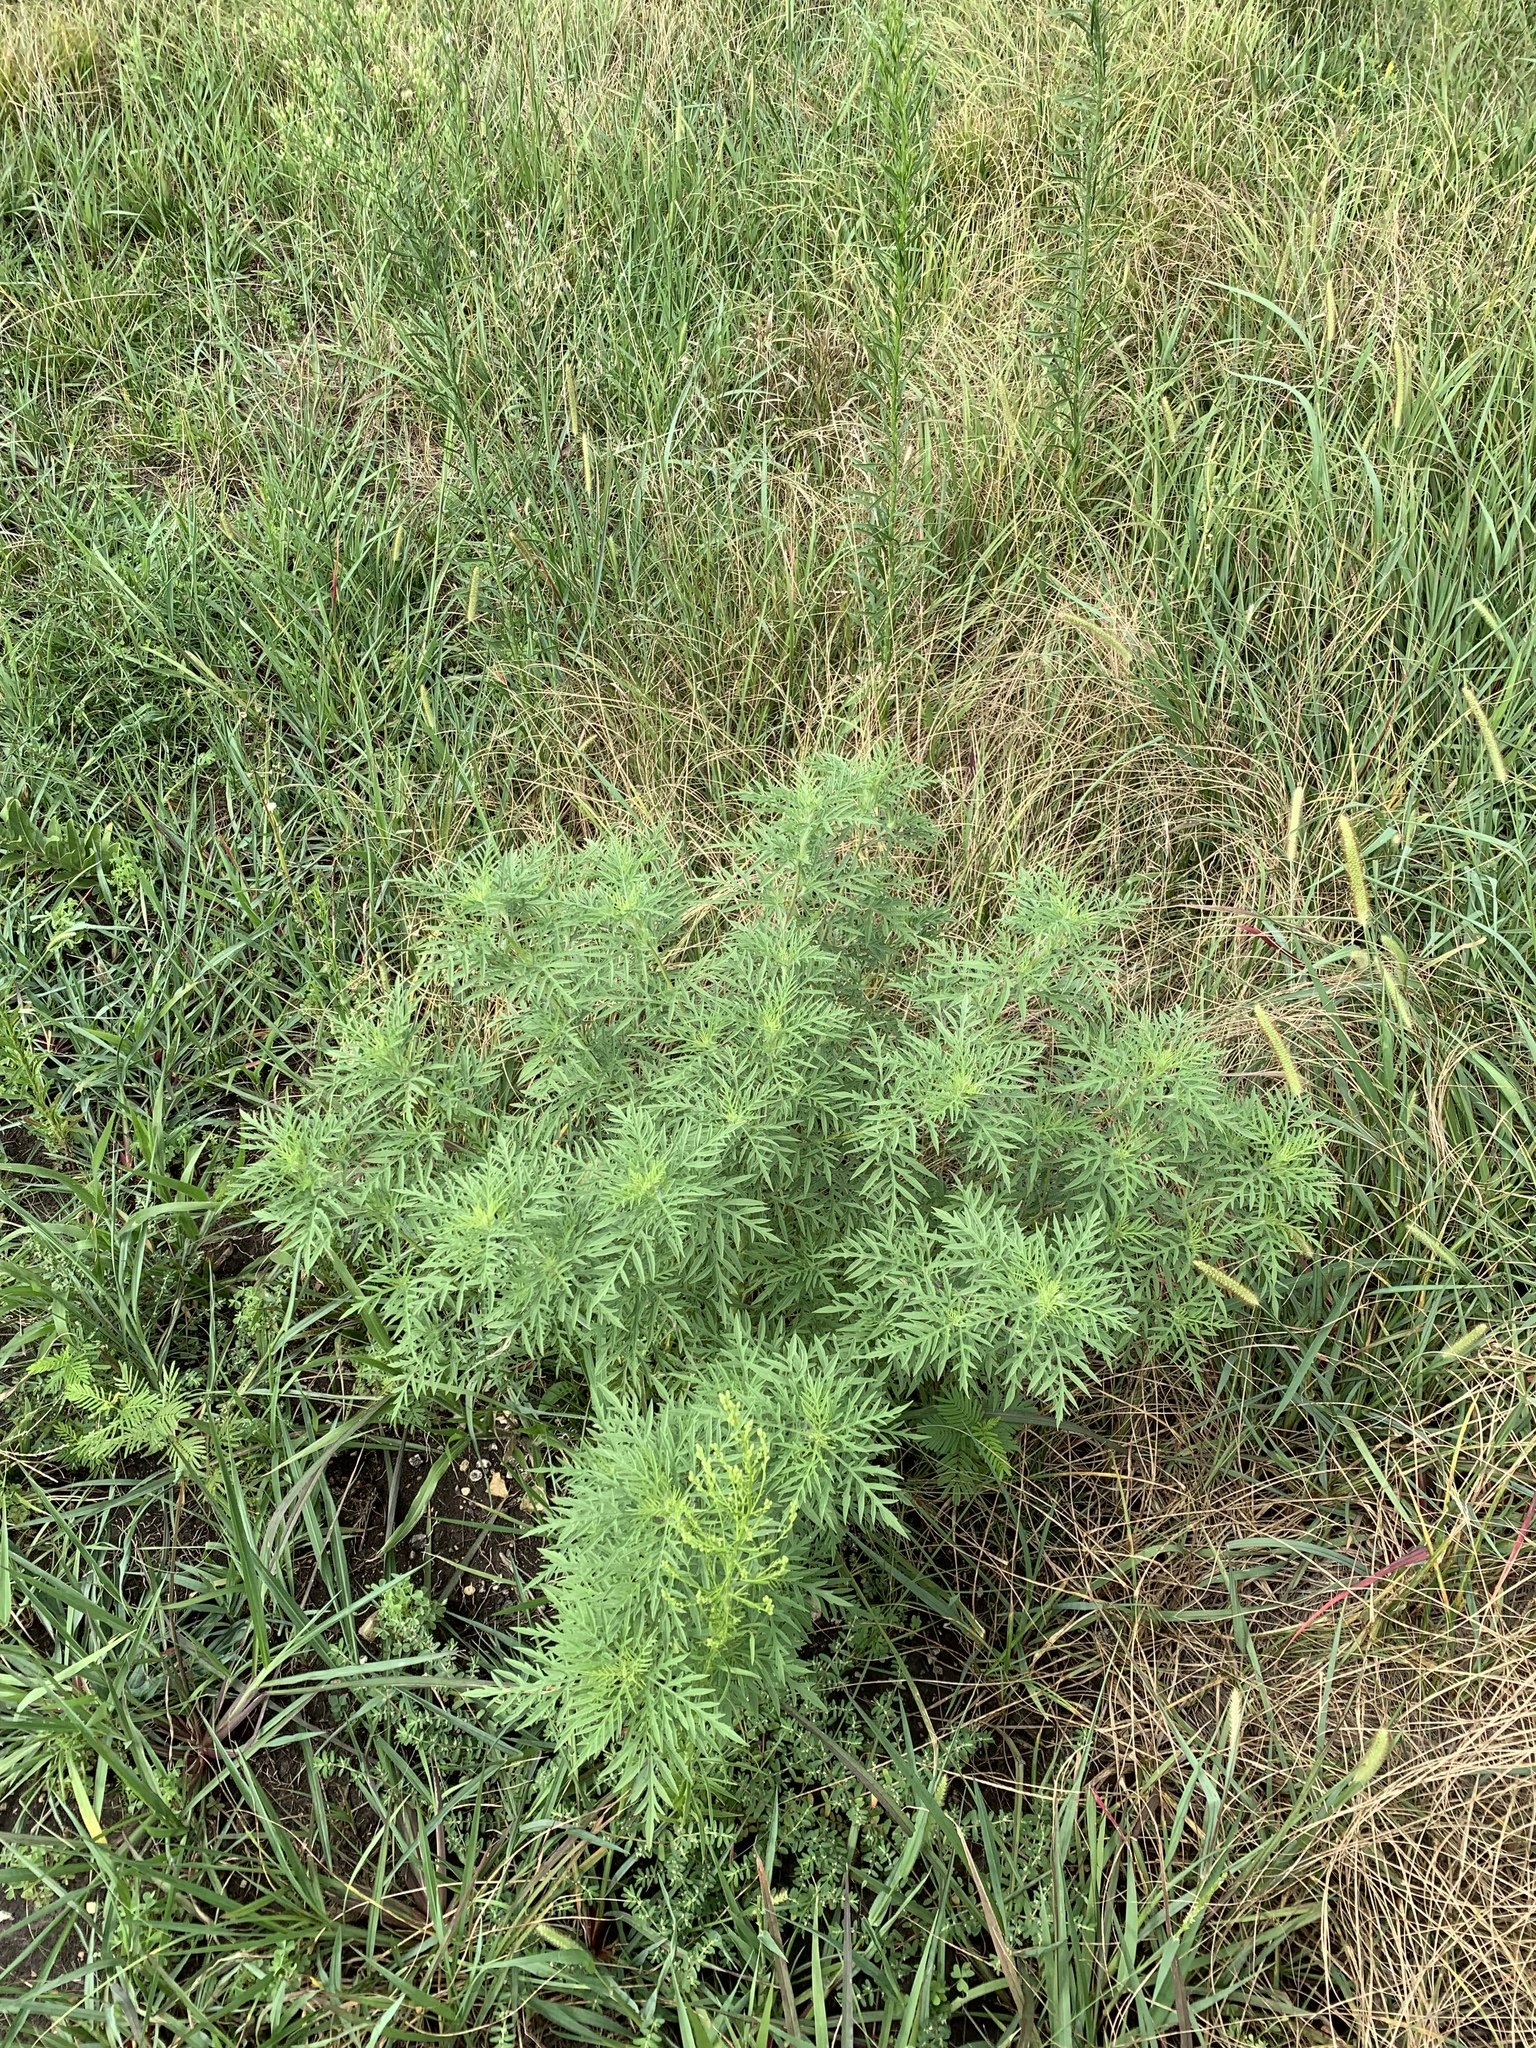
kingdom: Plantae
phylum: Tracheophyta
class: Magnoliopsida
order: Asterales
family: Asteraceae
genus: Ambrosia
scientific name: Ambrosia artemisiifolia
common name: Annual ragweed
